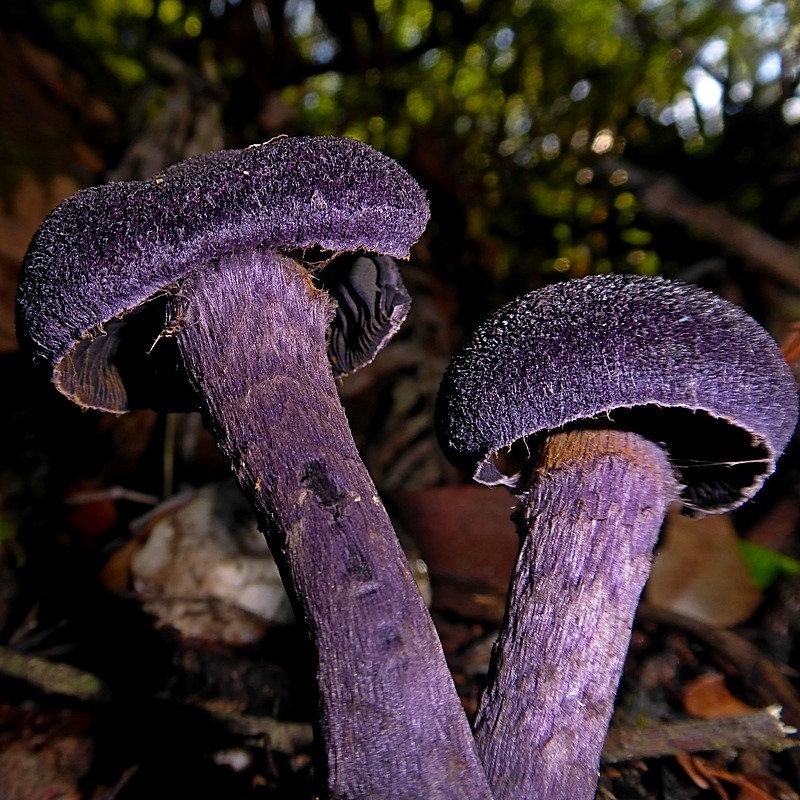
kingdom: Fungi
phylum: Basidiomycota
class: Agaricomycetes
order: Agaricales
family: Cortinariaceae
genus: Cortinarius
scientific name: Cortinarius kioloensis
